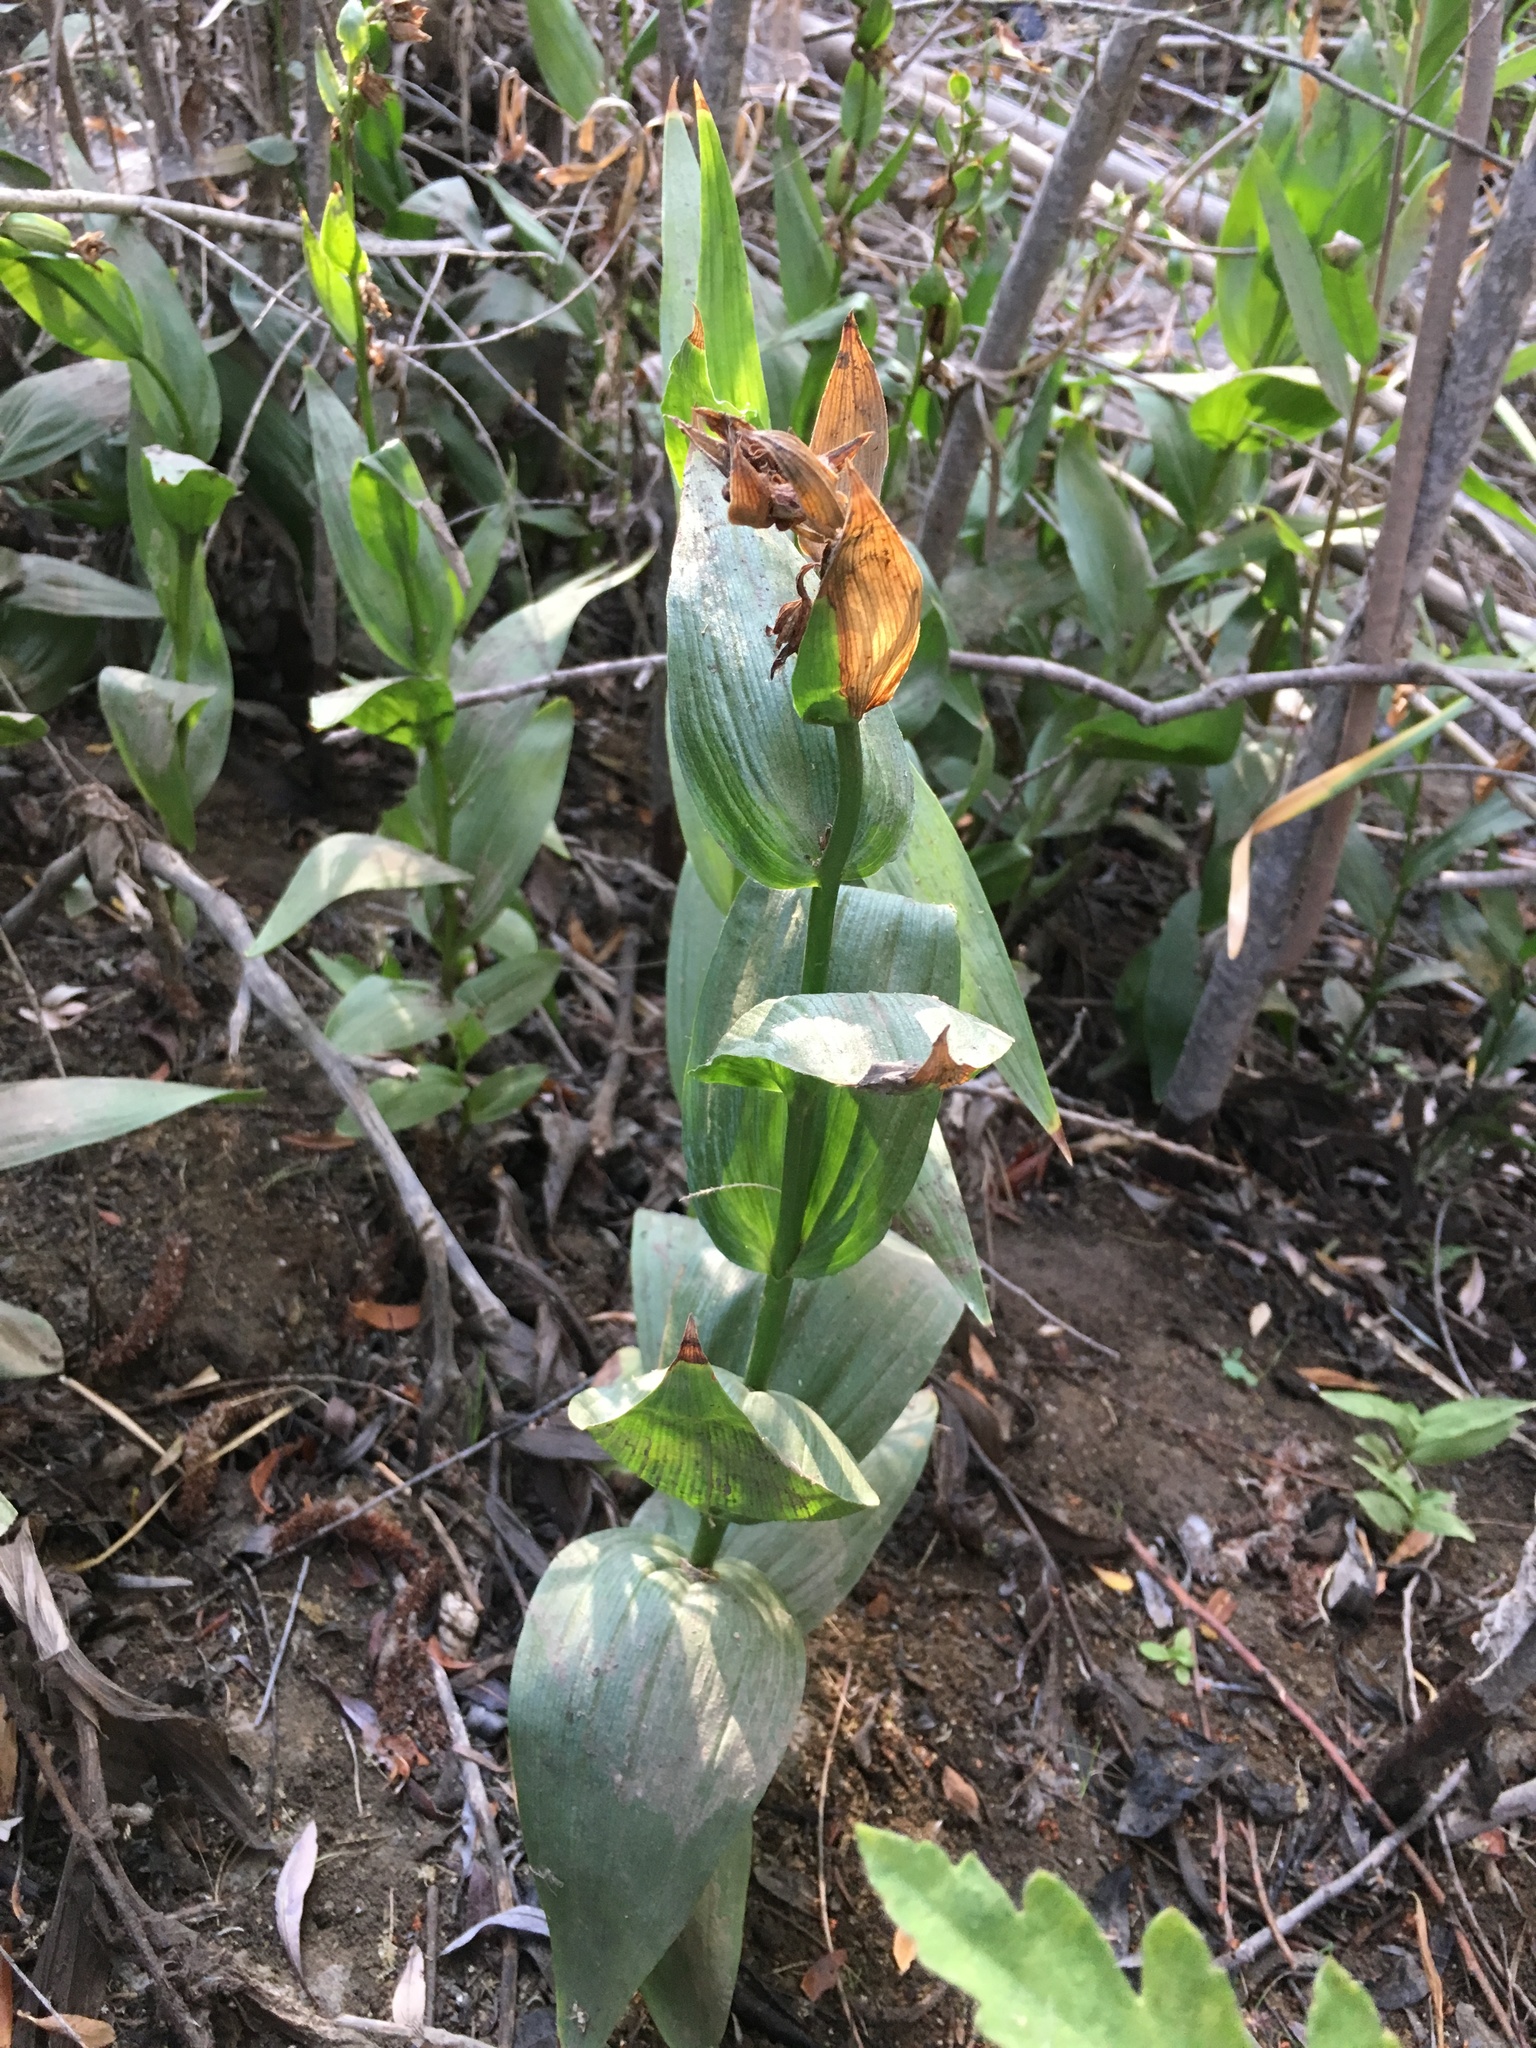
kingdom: Plantae
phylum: Tracheophyta
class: Liliopsida
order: Asparagales
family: Orchidaceae
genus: Epipactis
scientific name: Epipactis gigantea
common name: Chatterbox
